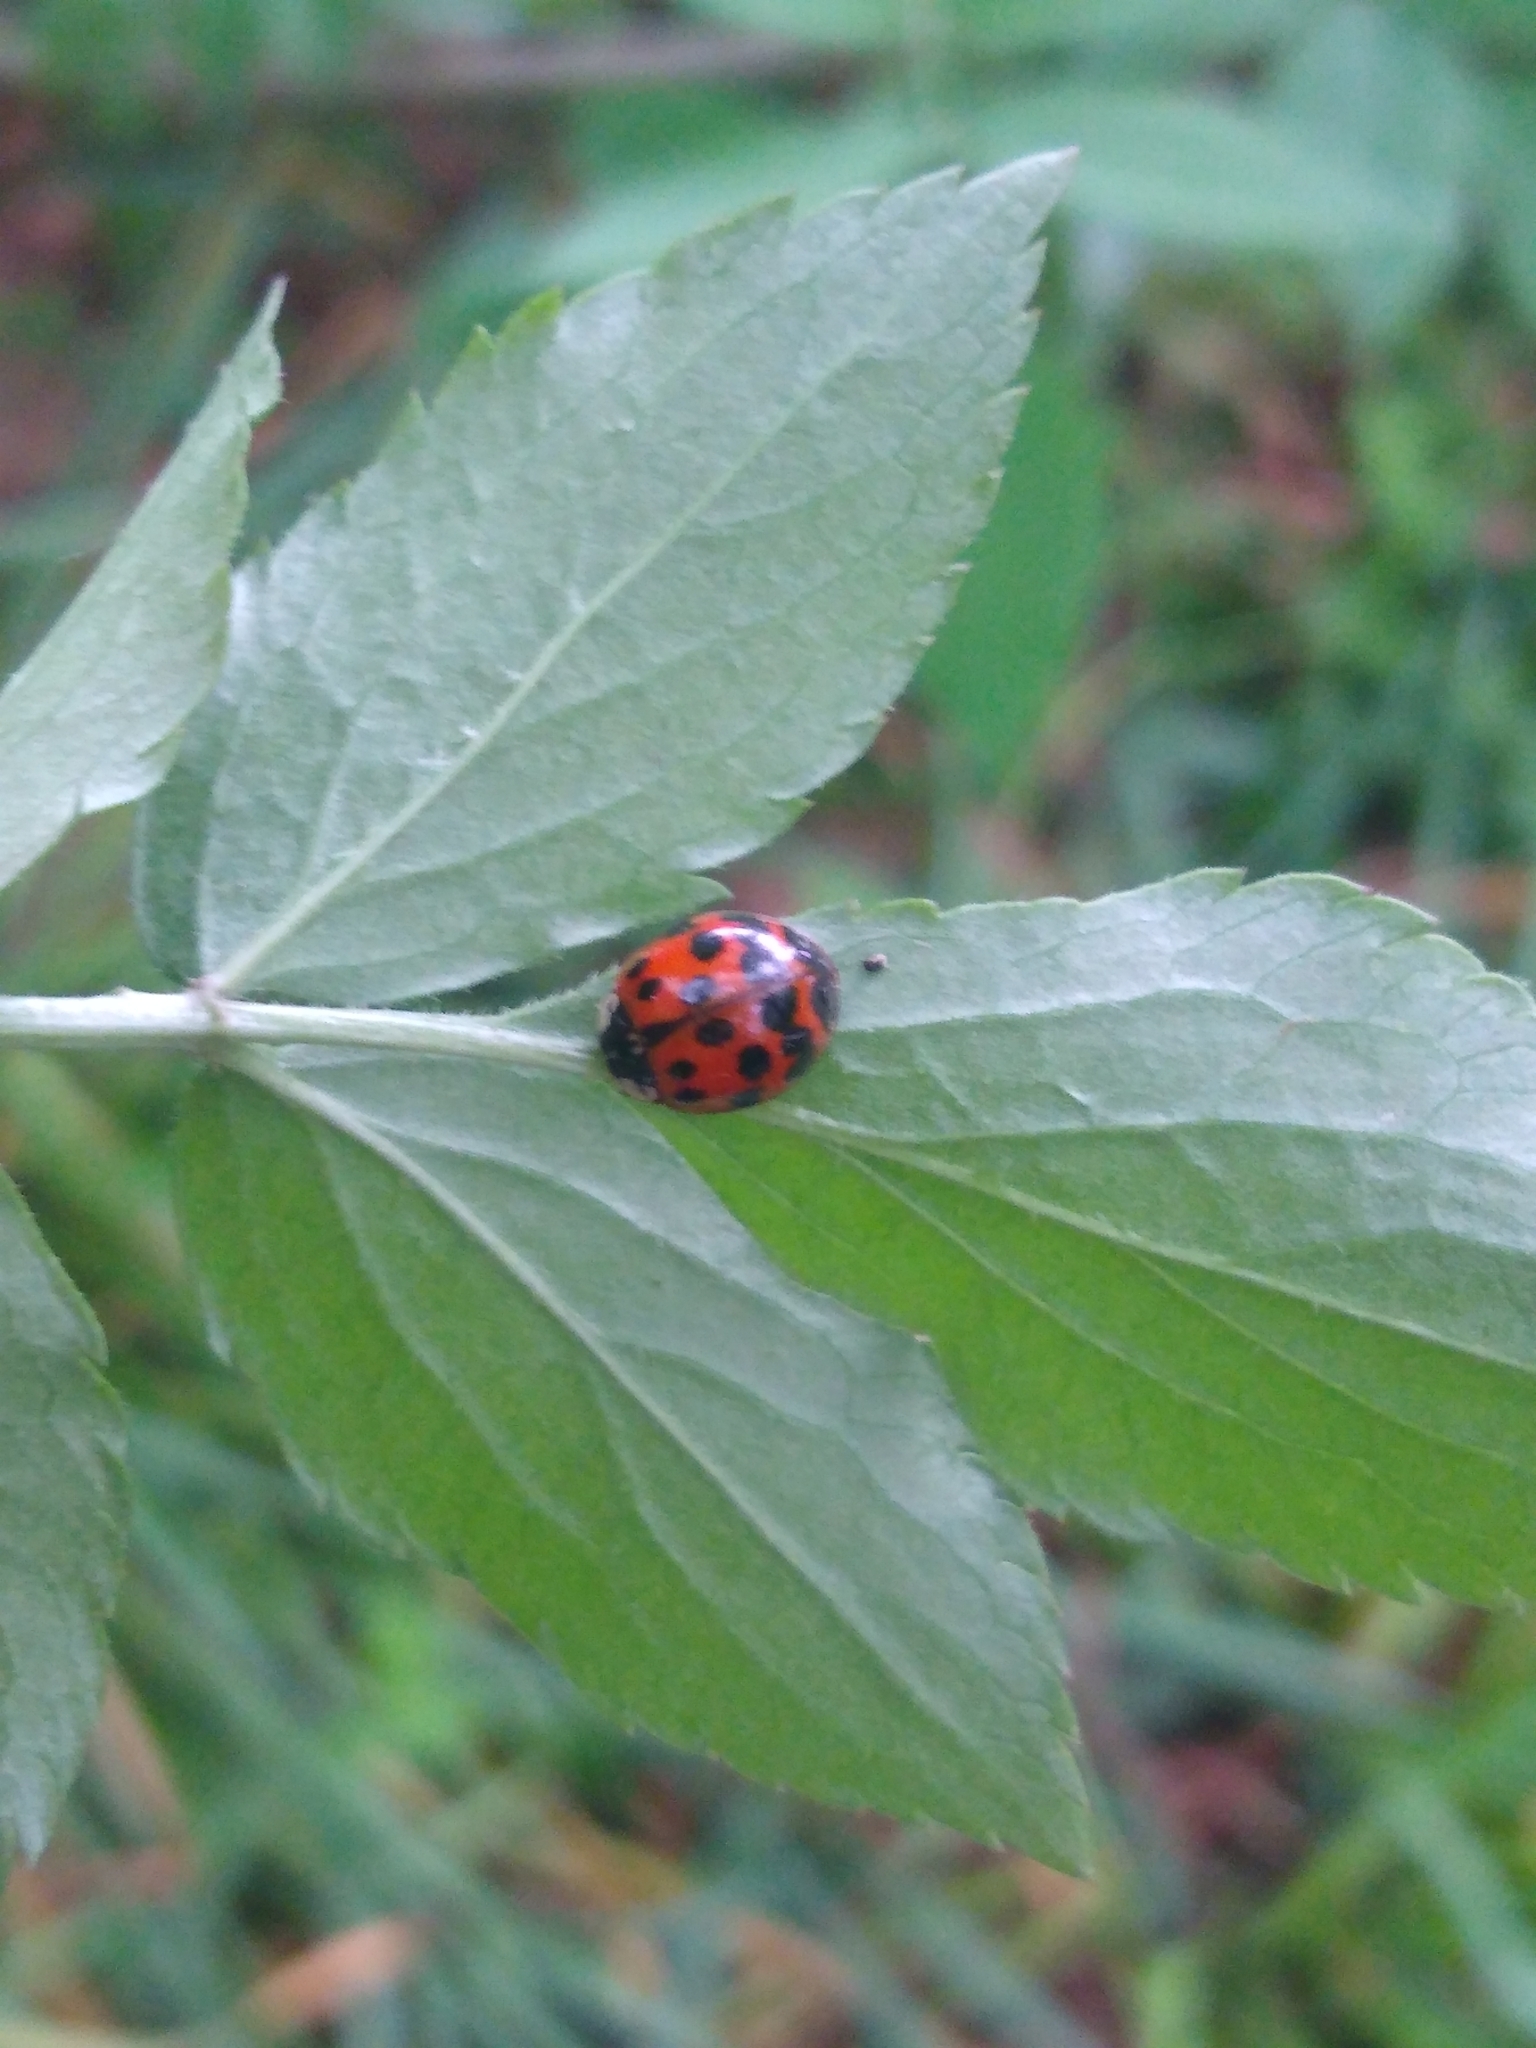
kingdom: Animalia
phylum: Arthropoda
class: Insecta
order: Coleoptera
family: Coccinellidae
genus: Harmonia
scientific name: Harmonia axyridis
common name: Harlequin ladybird
